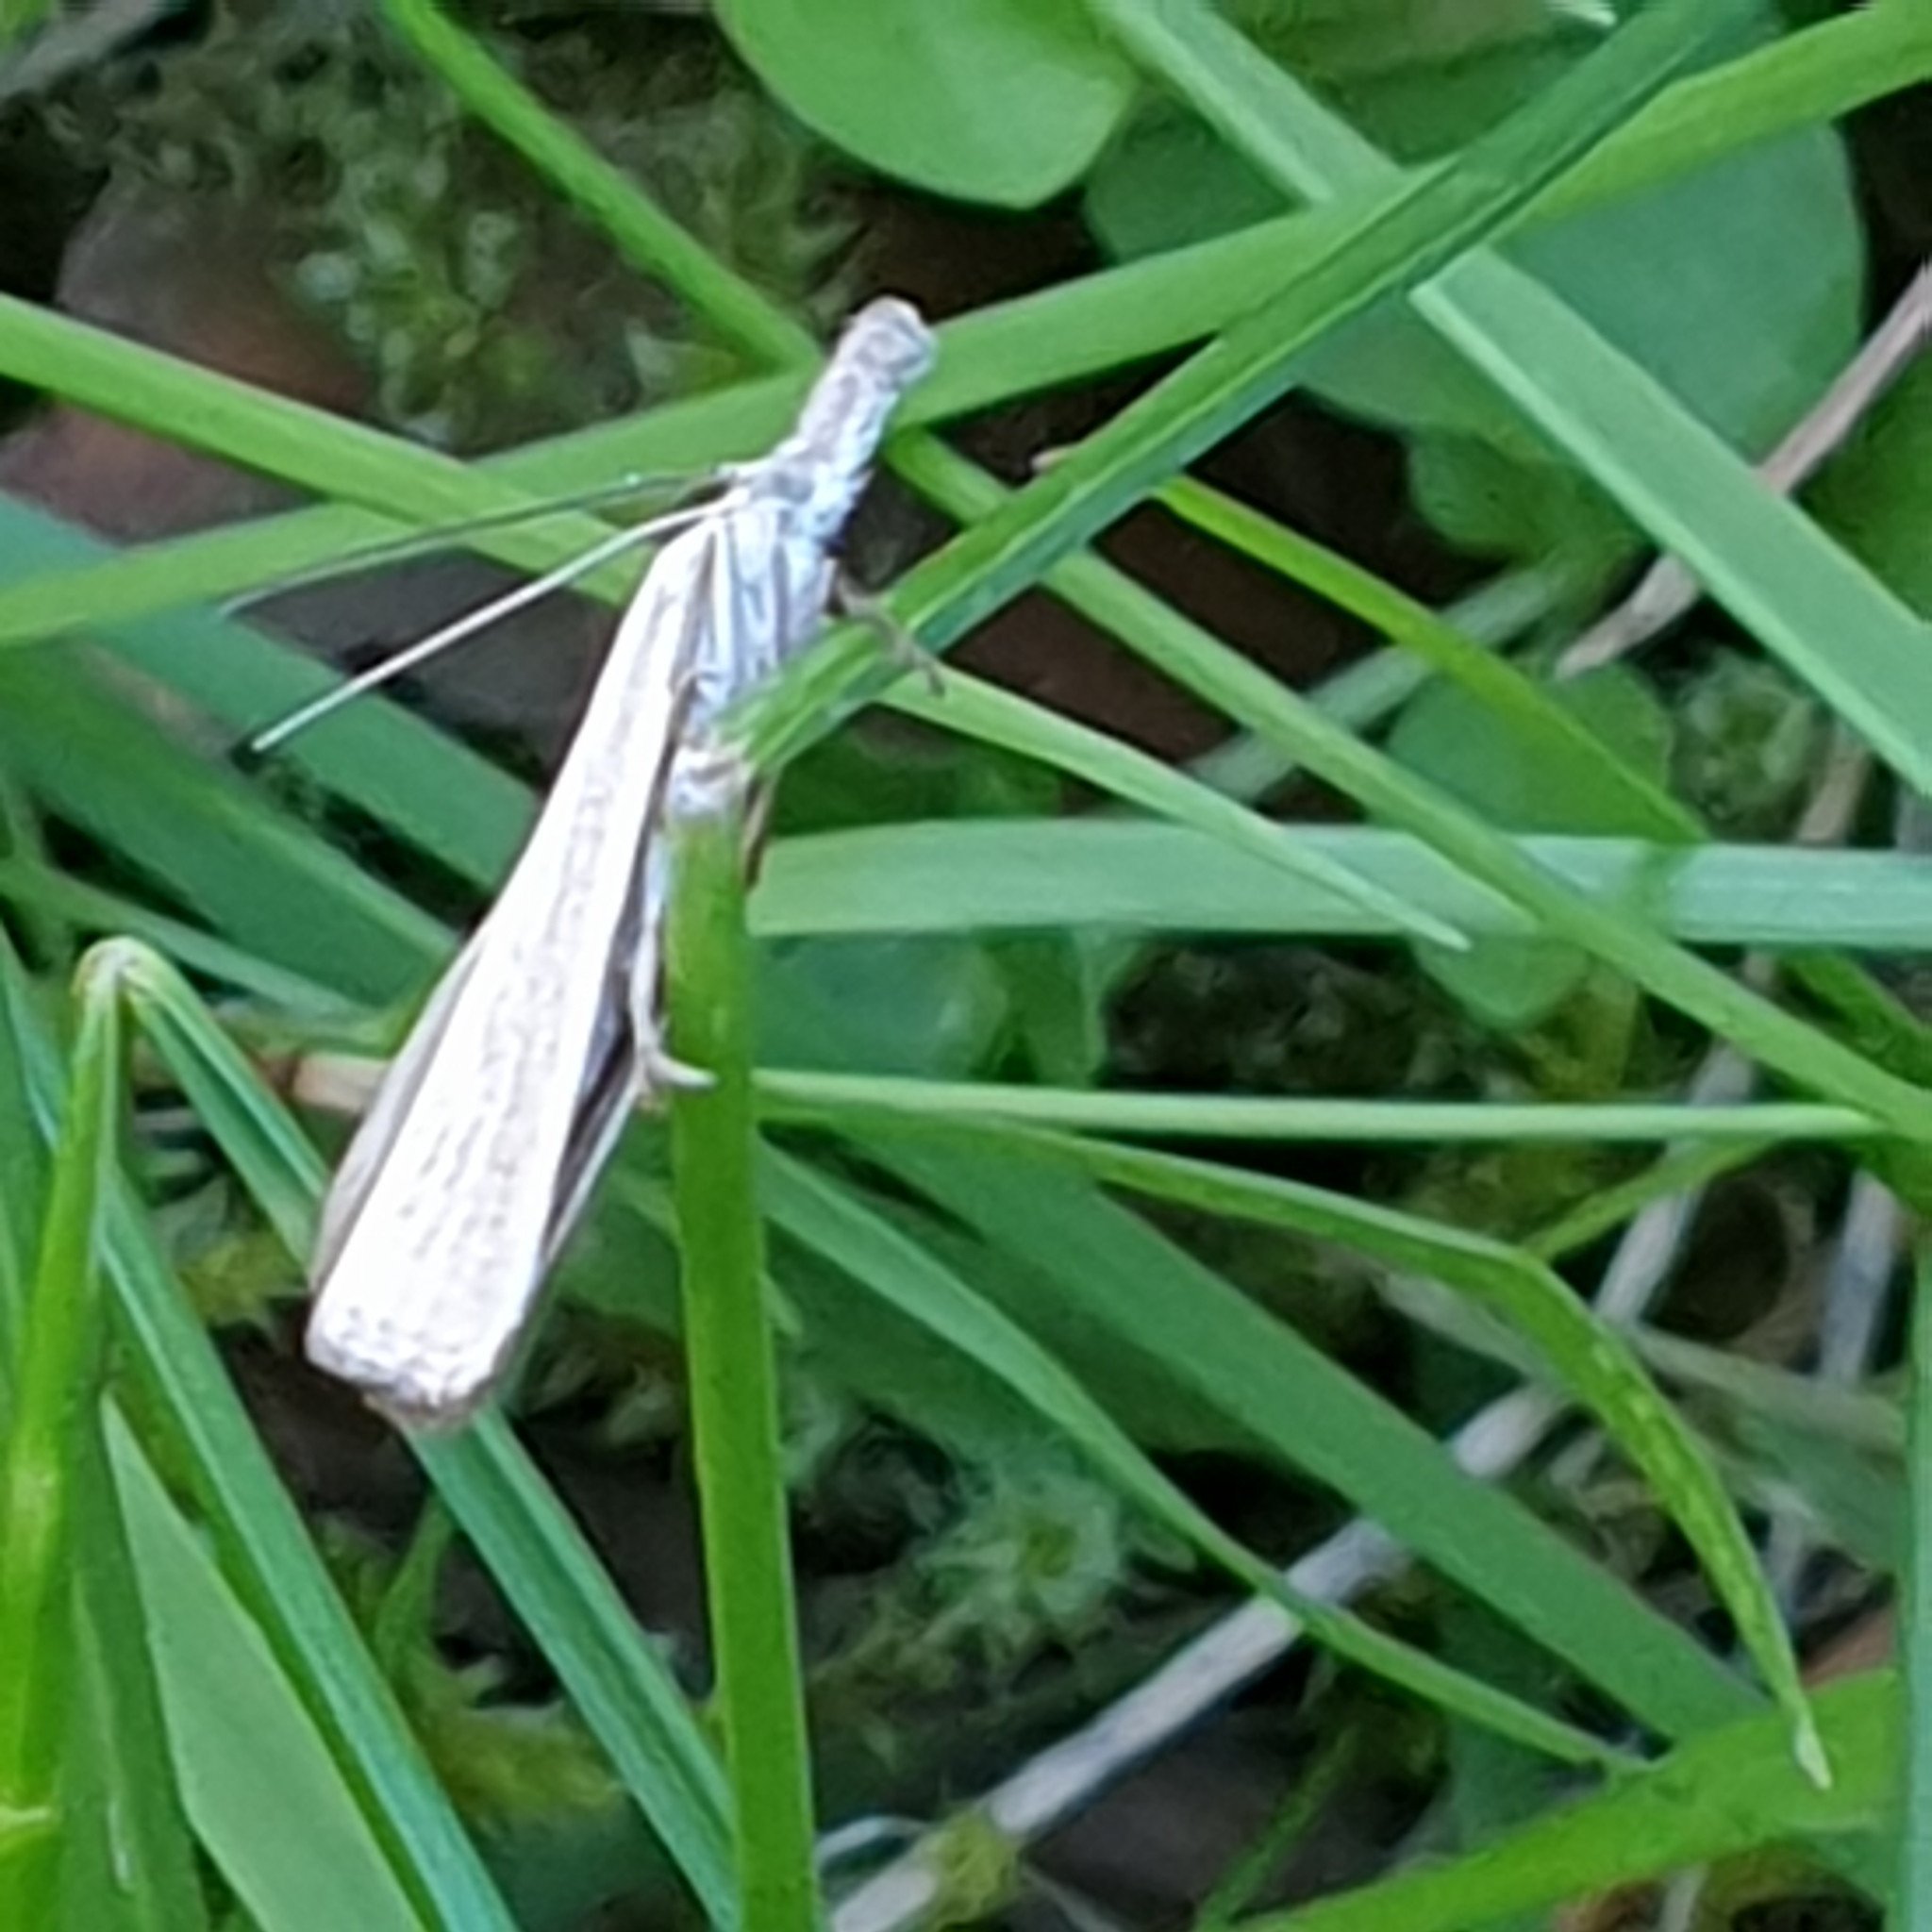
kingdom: Animalia
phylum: Arthropoda
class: Insecta
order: Lepidoptera
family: Crambidae
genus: Agriphila
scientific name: Agriphila straminella
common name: Straw grass-veneer
